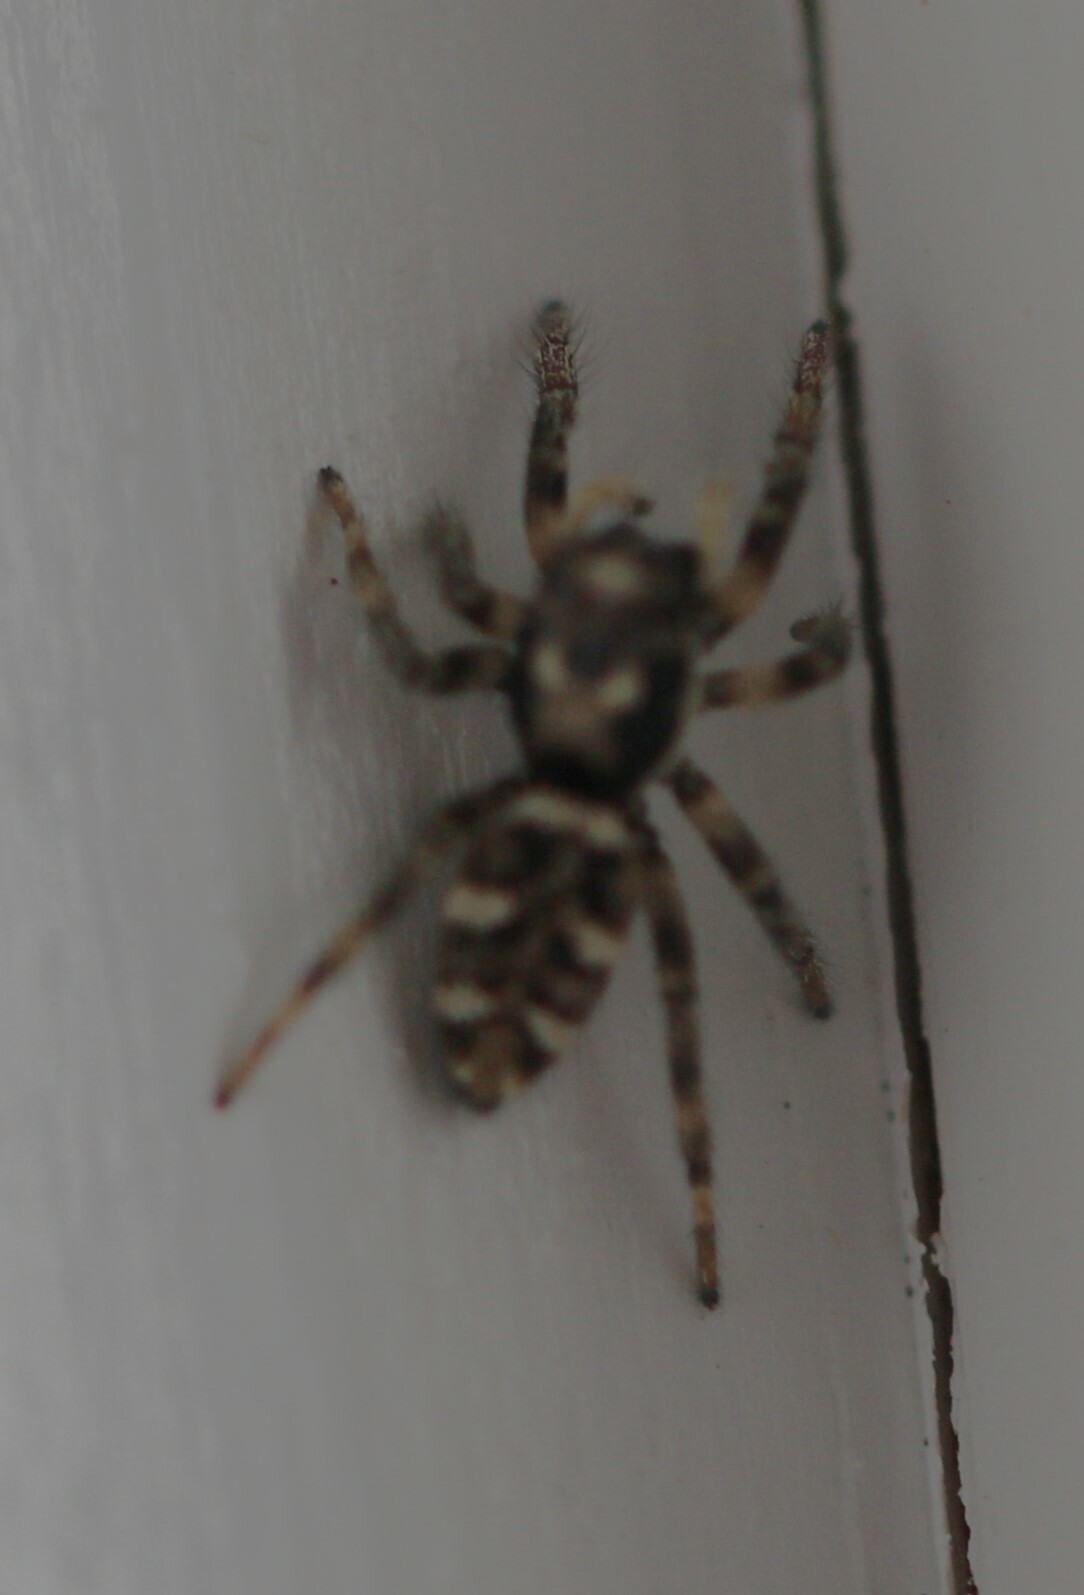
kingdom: Animalia
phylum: Arthropoda
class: Arachnida
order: Araneae
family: Salticidae
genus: Salticus
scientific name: Salticus scenicus
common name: Zebra jumper
